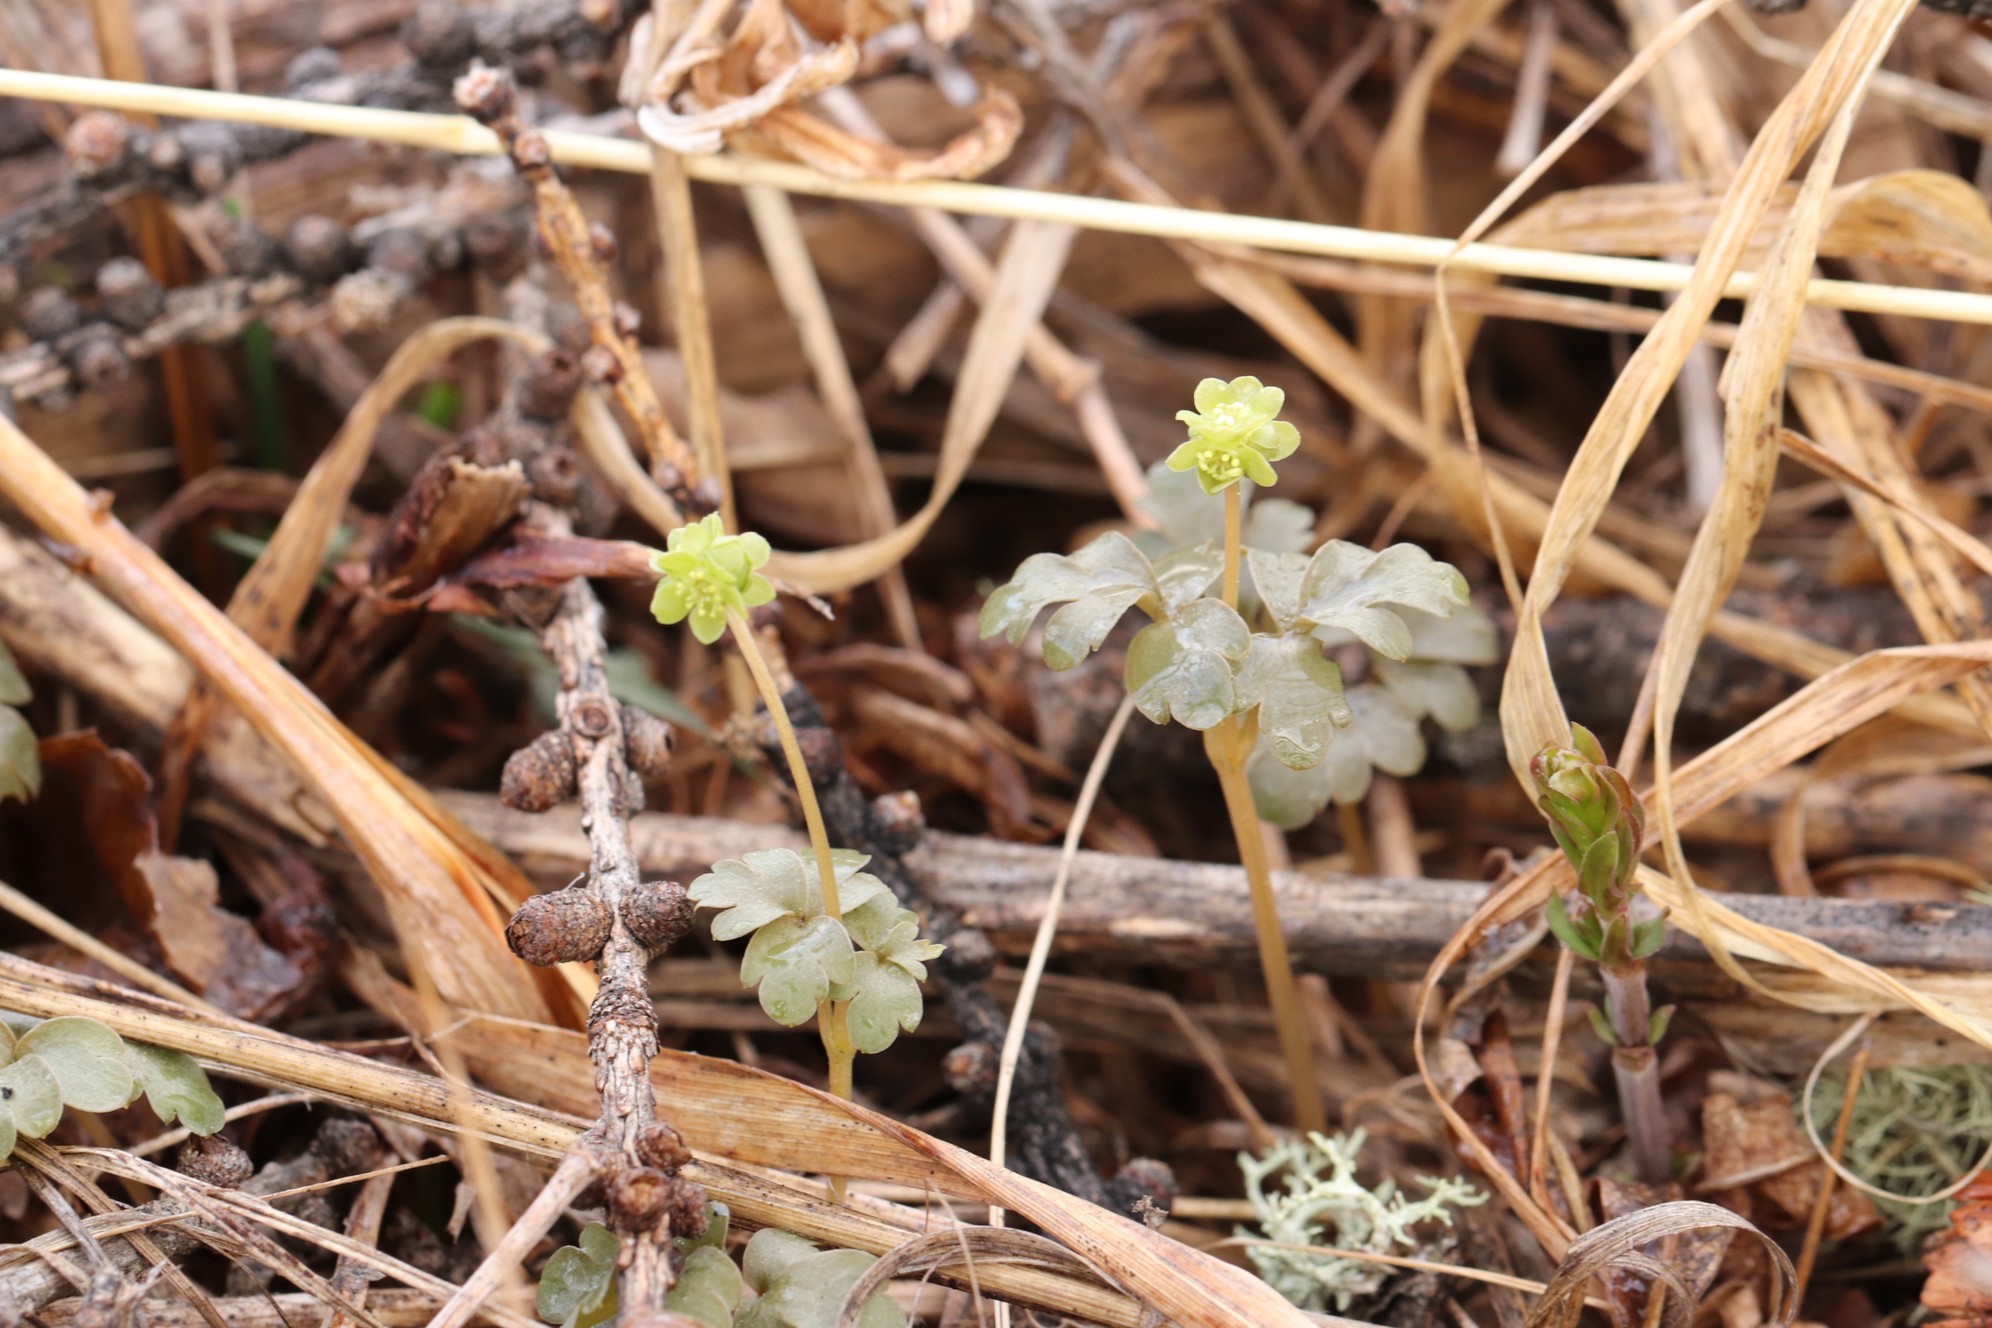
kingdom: Plantae
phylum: Tracheophyta
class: Magnoliopsida
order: Dipsacales
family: Viburnaceae
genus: Adoxa
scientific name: Adoxa moschatellina
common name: Moschatel
